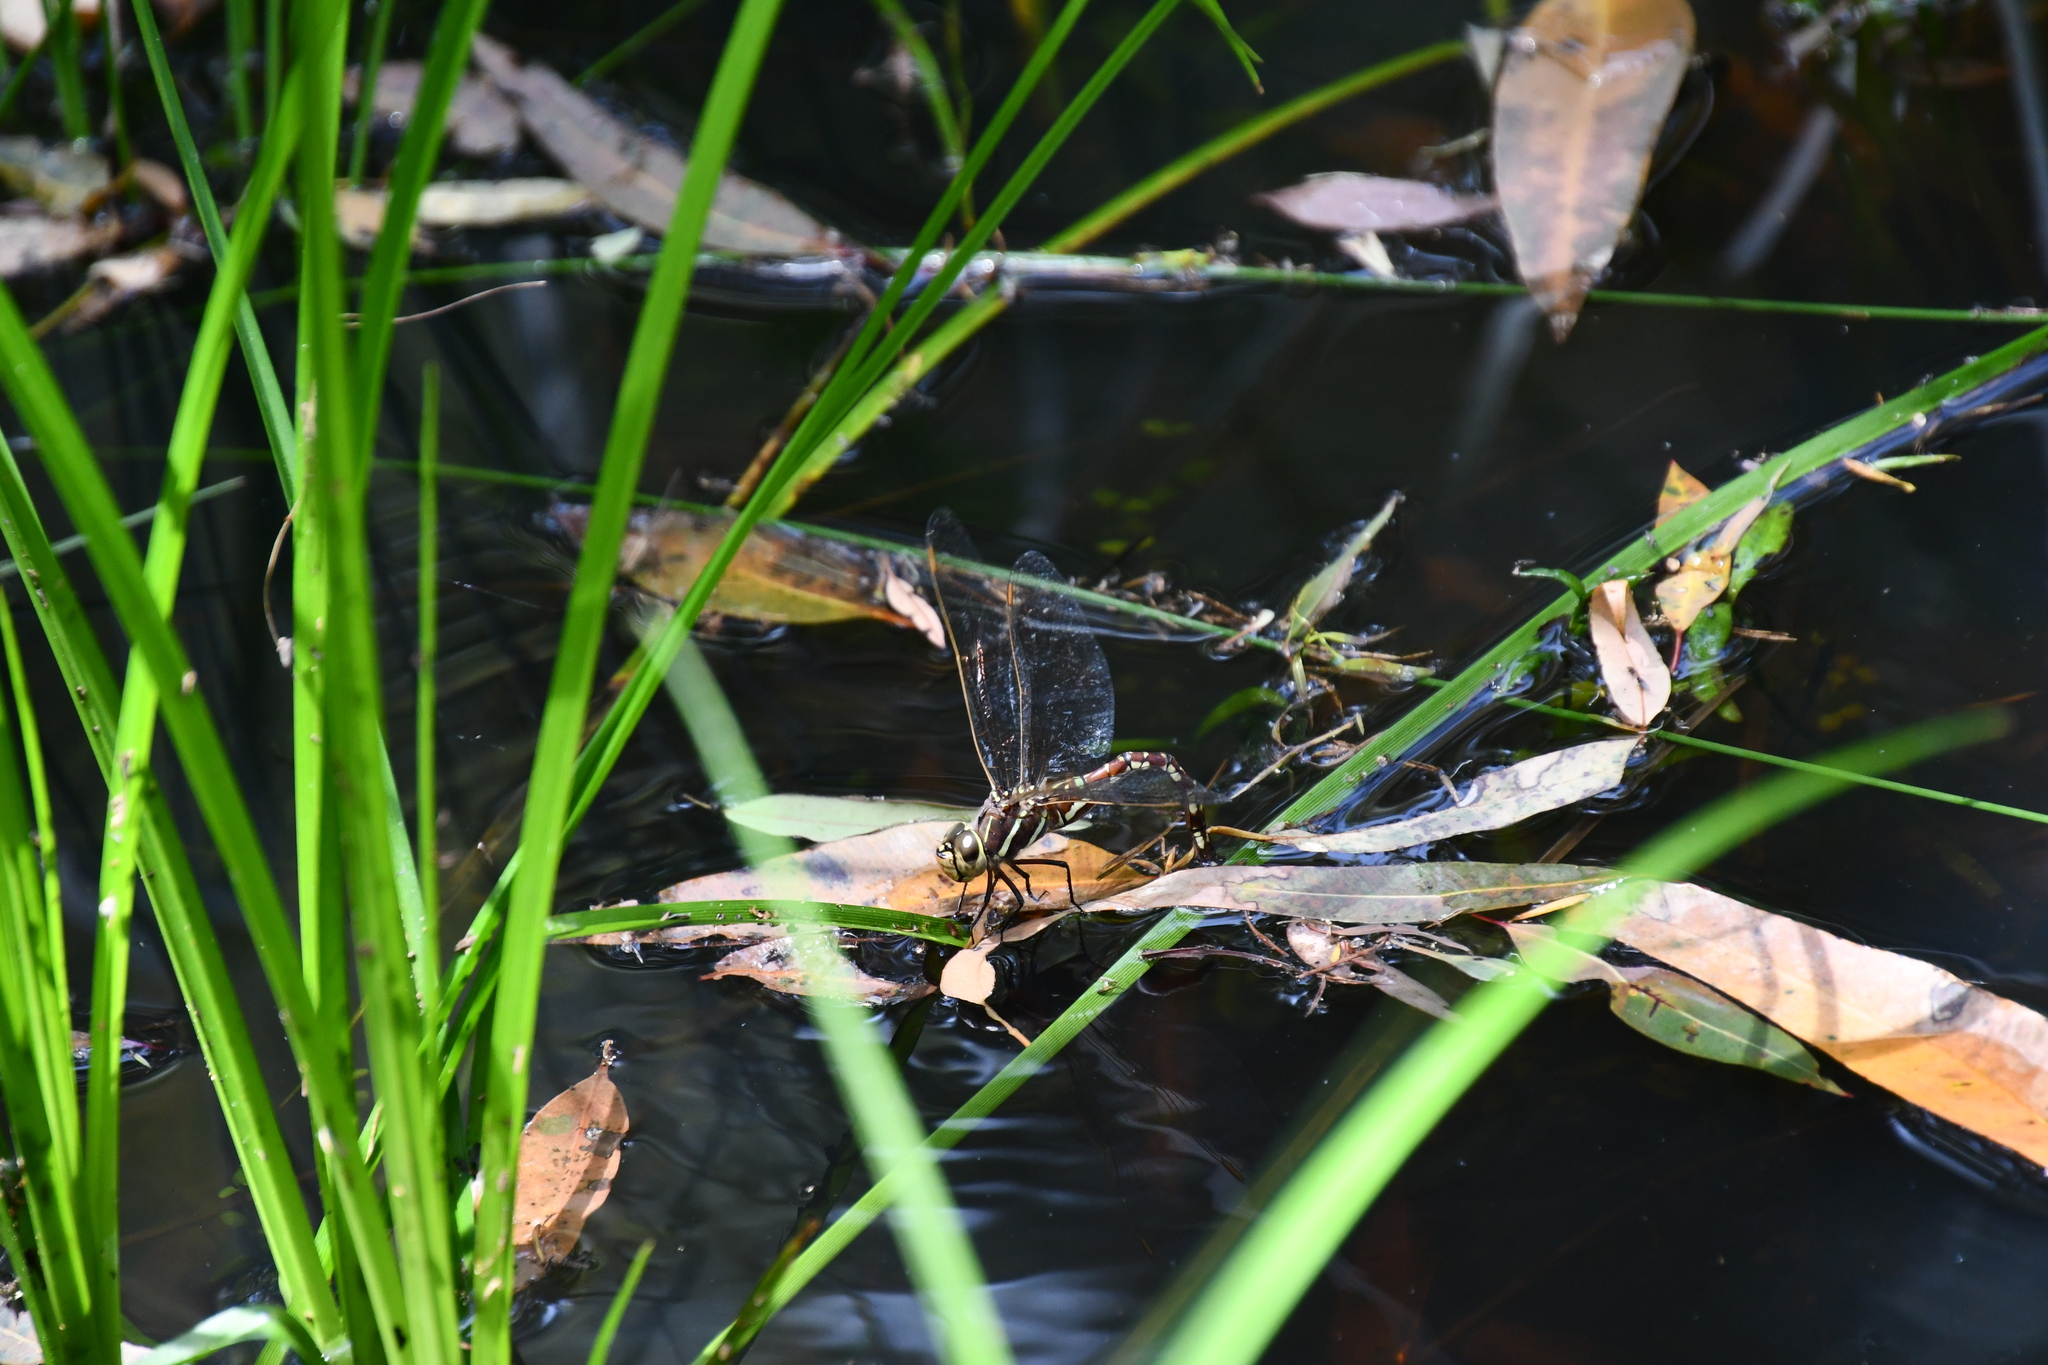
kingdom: Animalia
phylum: Arthropoda
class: Insecta
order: Odonata
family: Aeshnidae
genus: Aeshna
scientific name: Aeshna brevistyla
